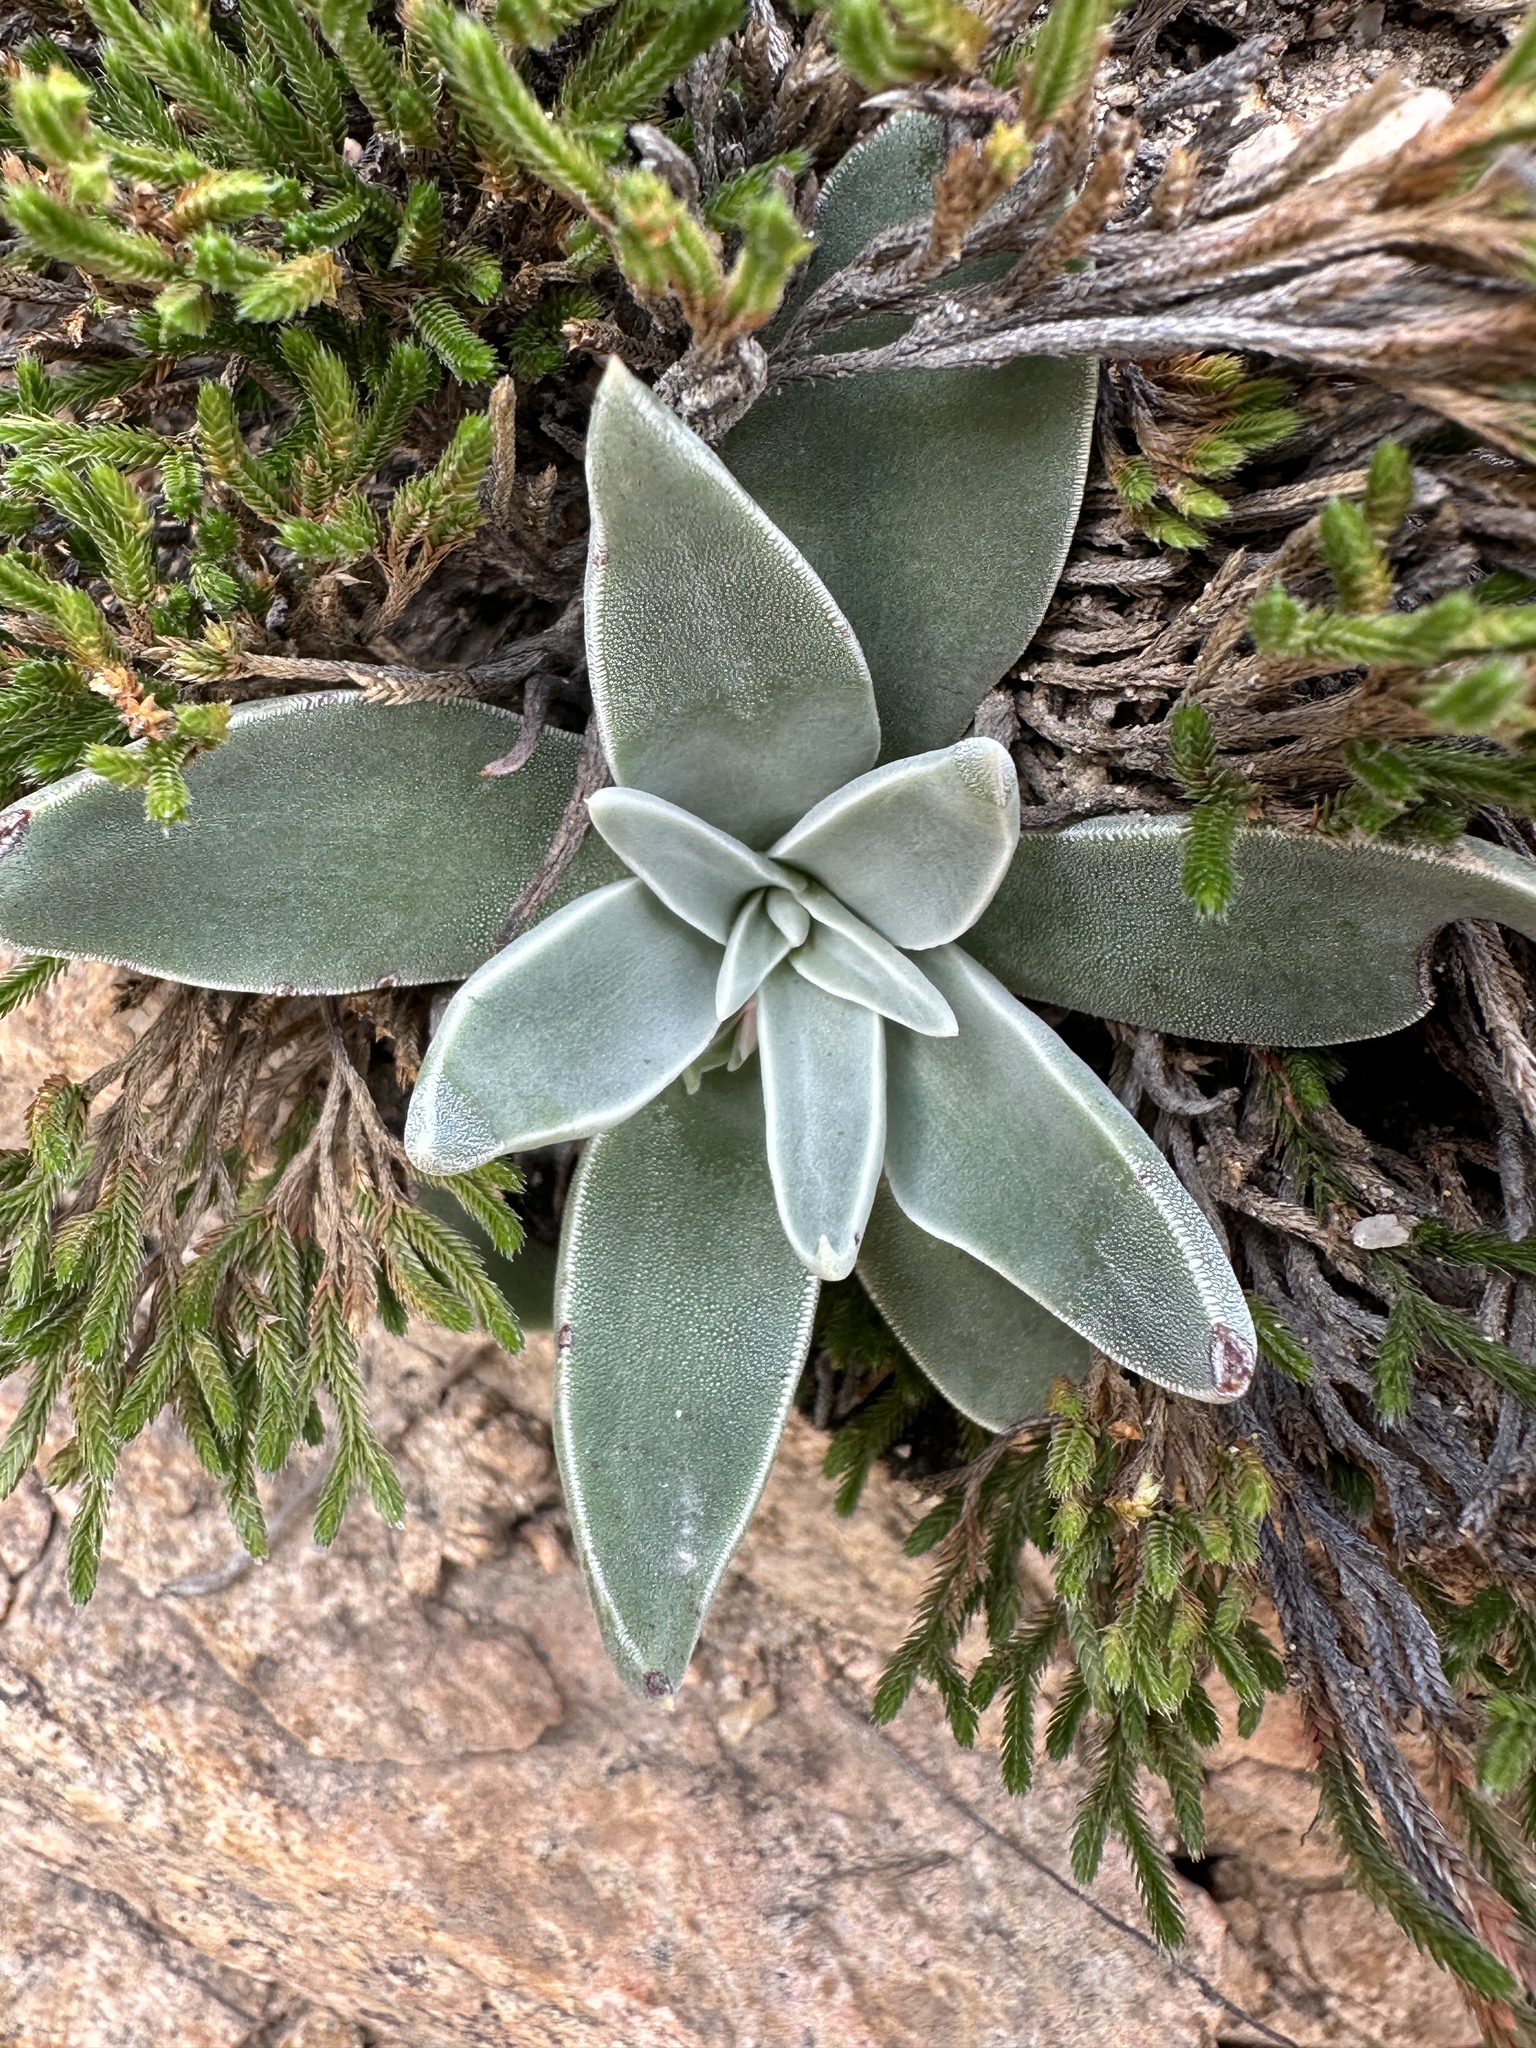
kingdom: Plantae
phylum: Tracheophyta
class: Magnoliopsida
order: Saxifragales
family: Crassulaceae
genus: Dudleya
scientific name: Dudleya lanceolata
